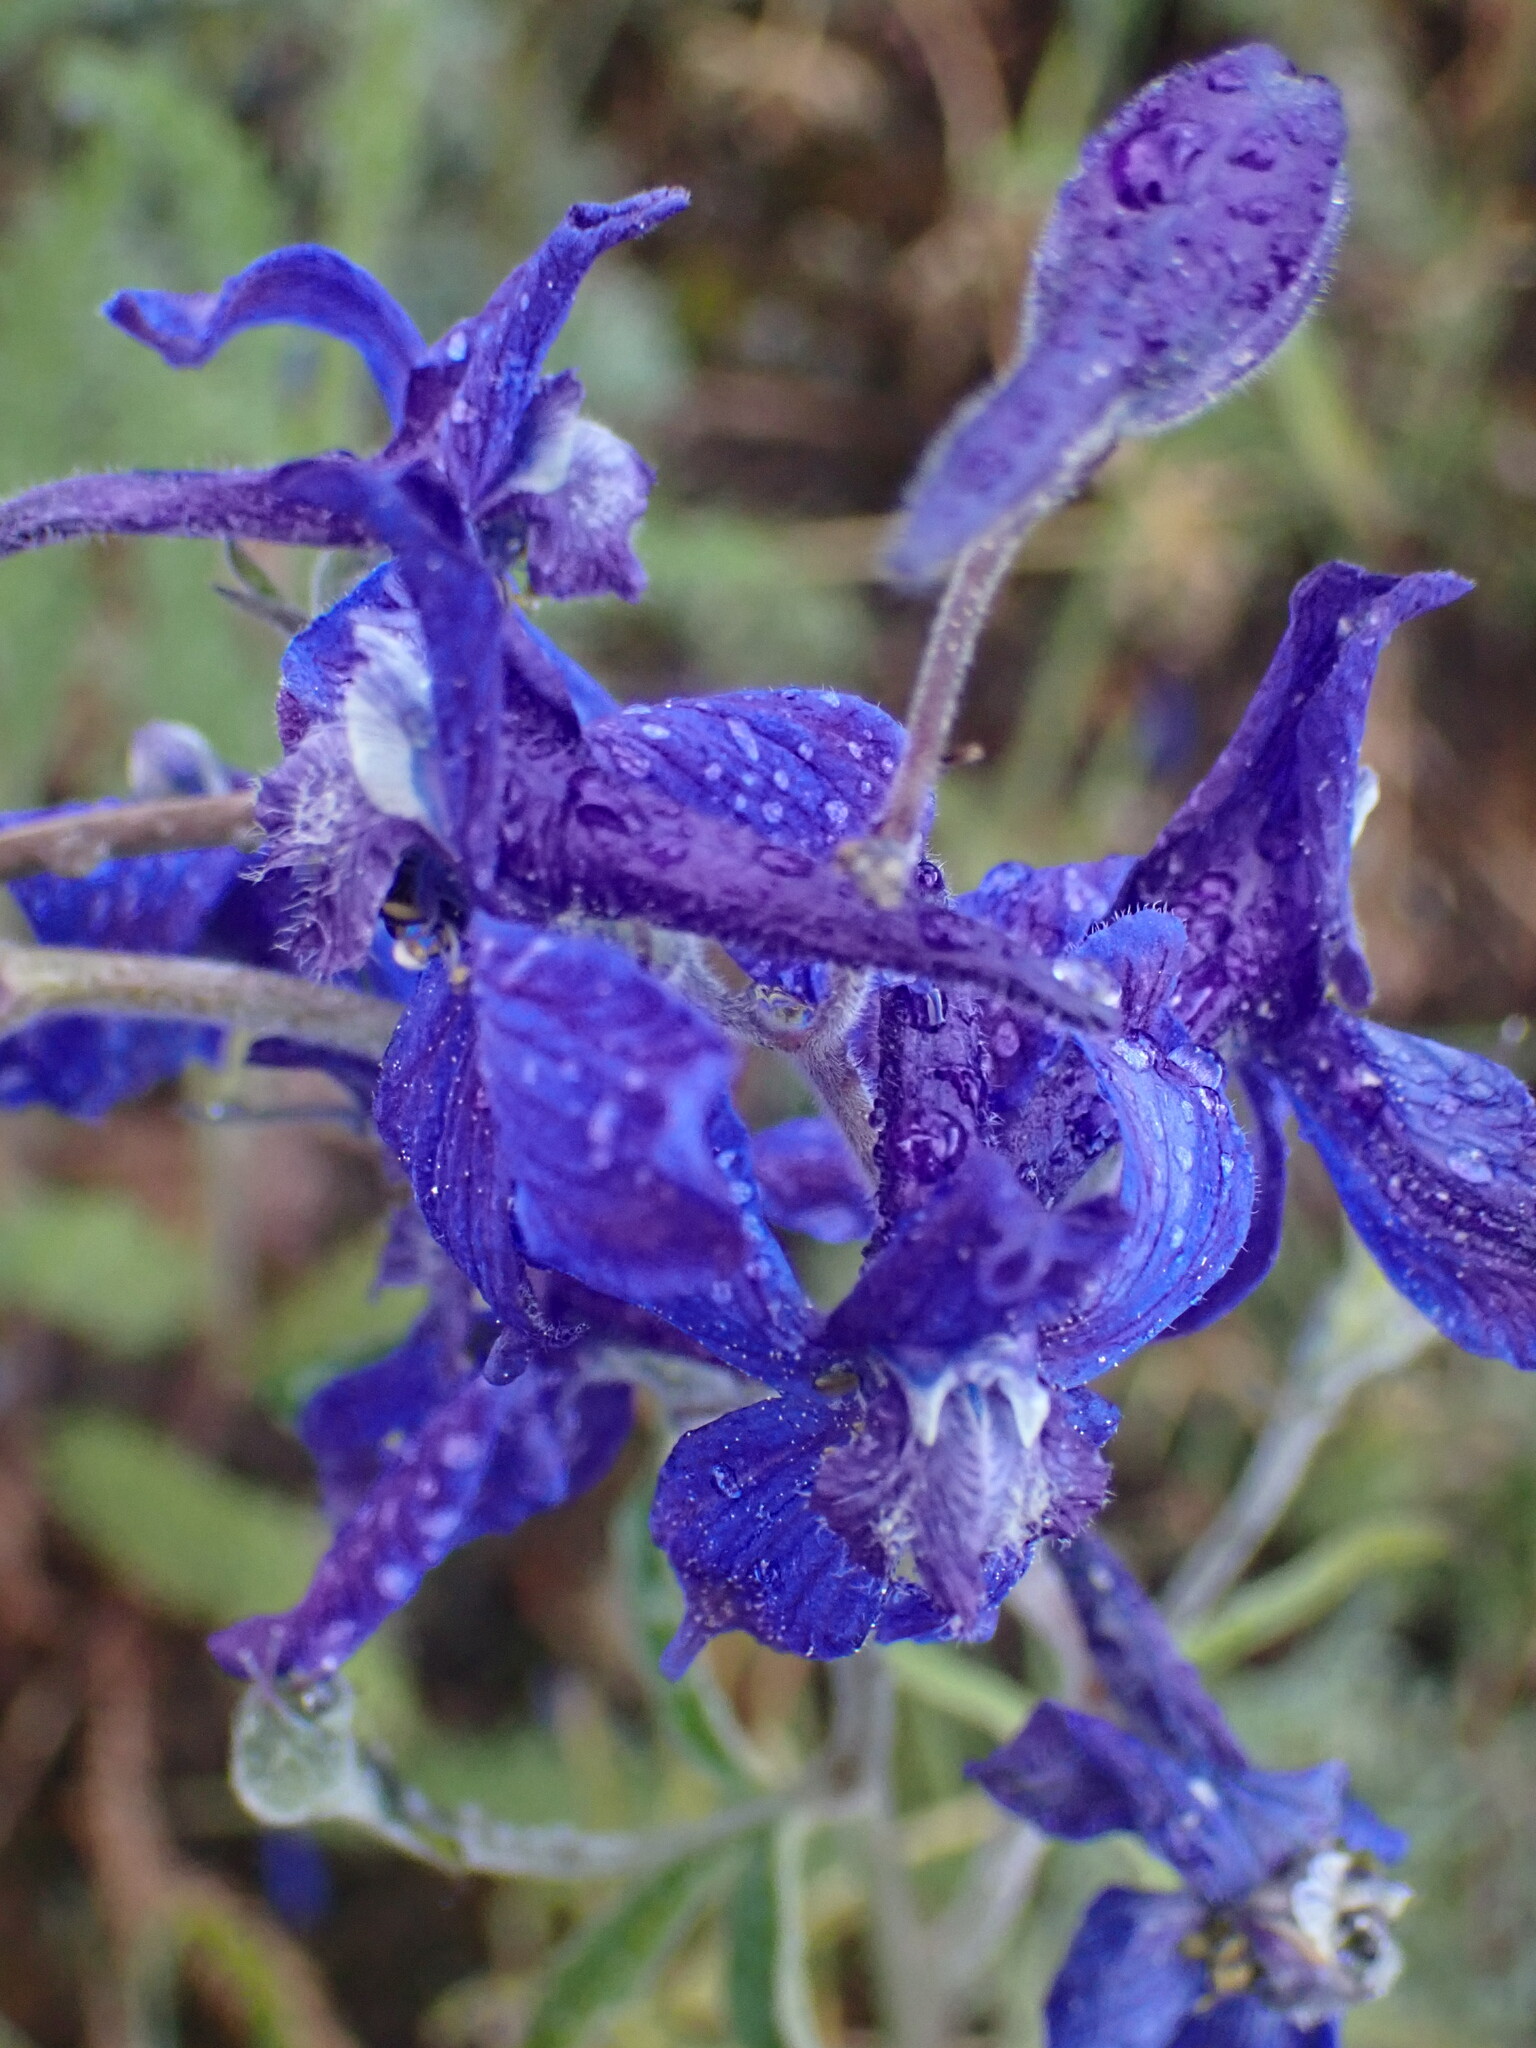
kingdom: Plantae
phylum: Tracheophyta
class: Magnoliopsida
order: Ranunculales
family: Ranunculaceae
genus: Delphinium
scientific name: Delphinium nuttallianum
